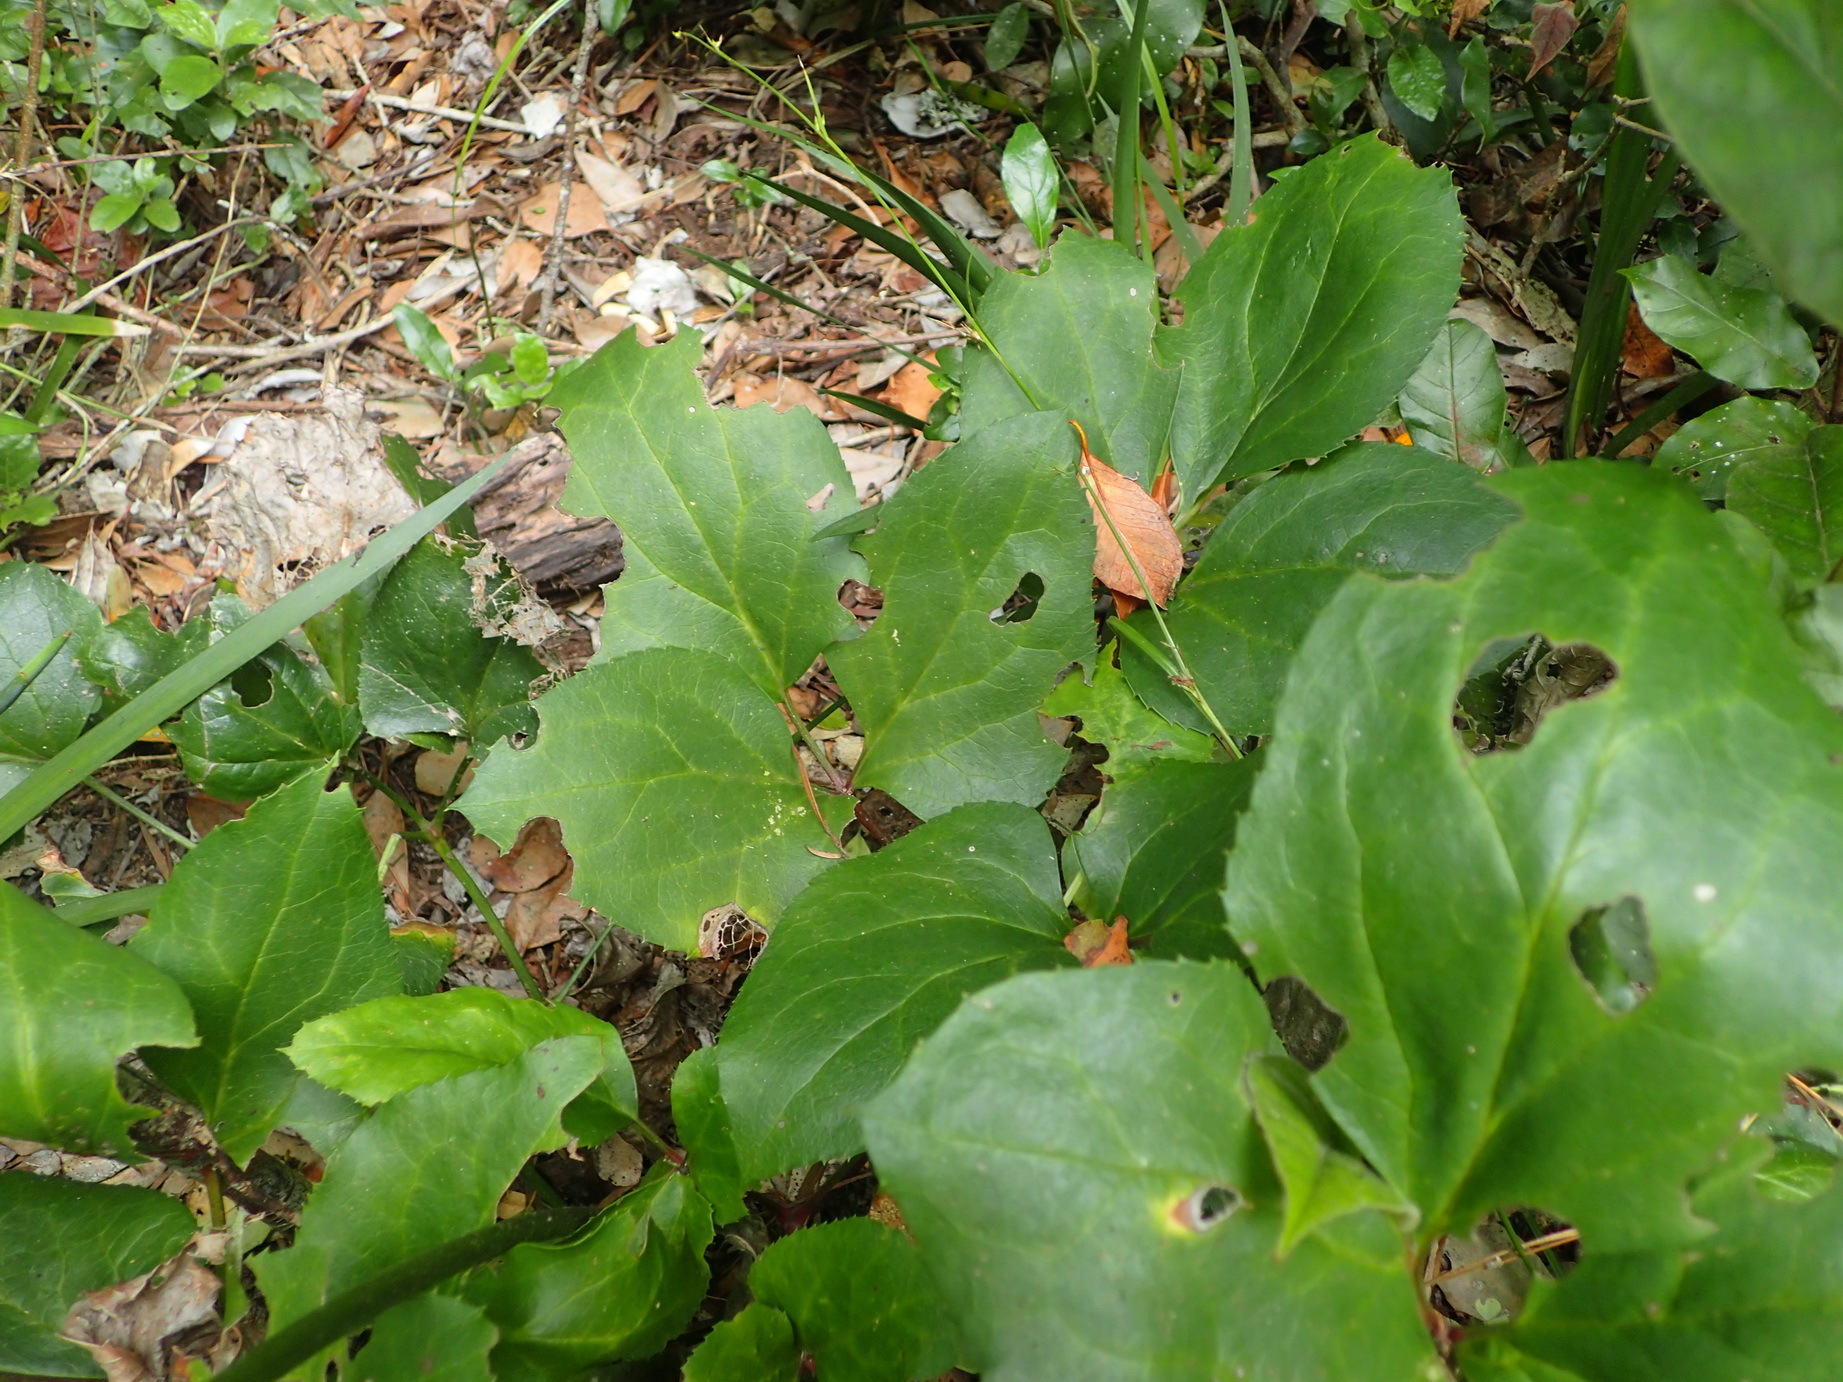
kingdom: Plantae
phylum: Tracheophyta
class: Magnoliopsida
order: Ranunculales
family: Ranunculaceae
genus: Knowltonia
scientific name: Knowltonia vesicatoria
